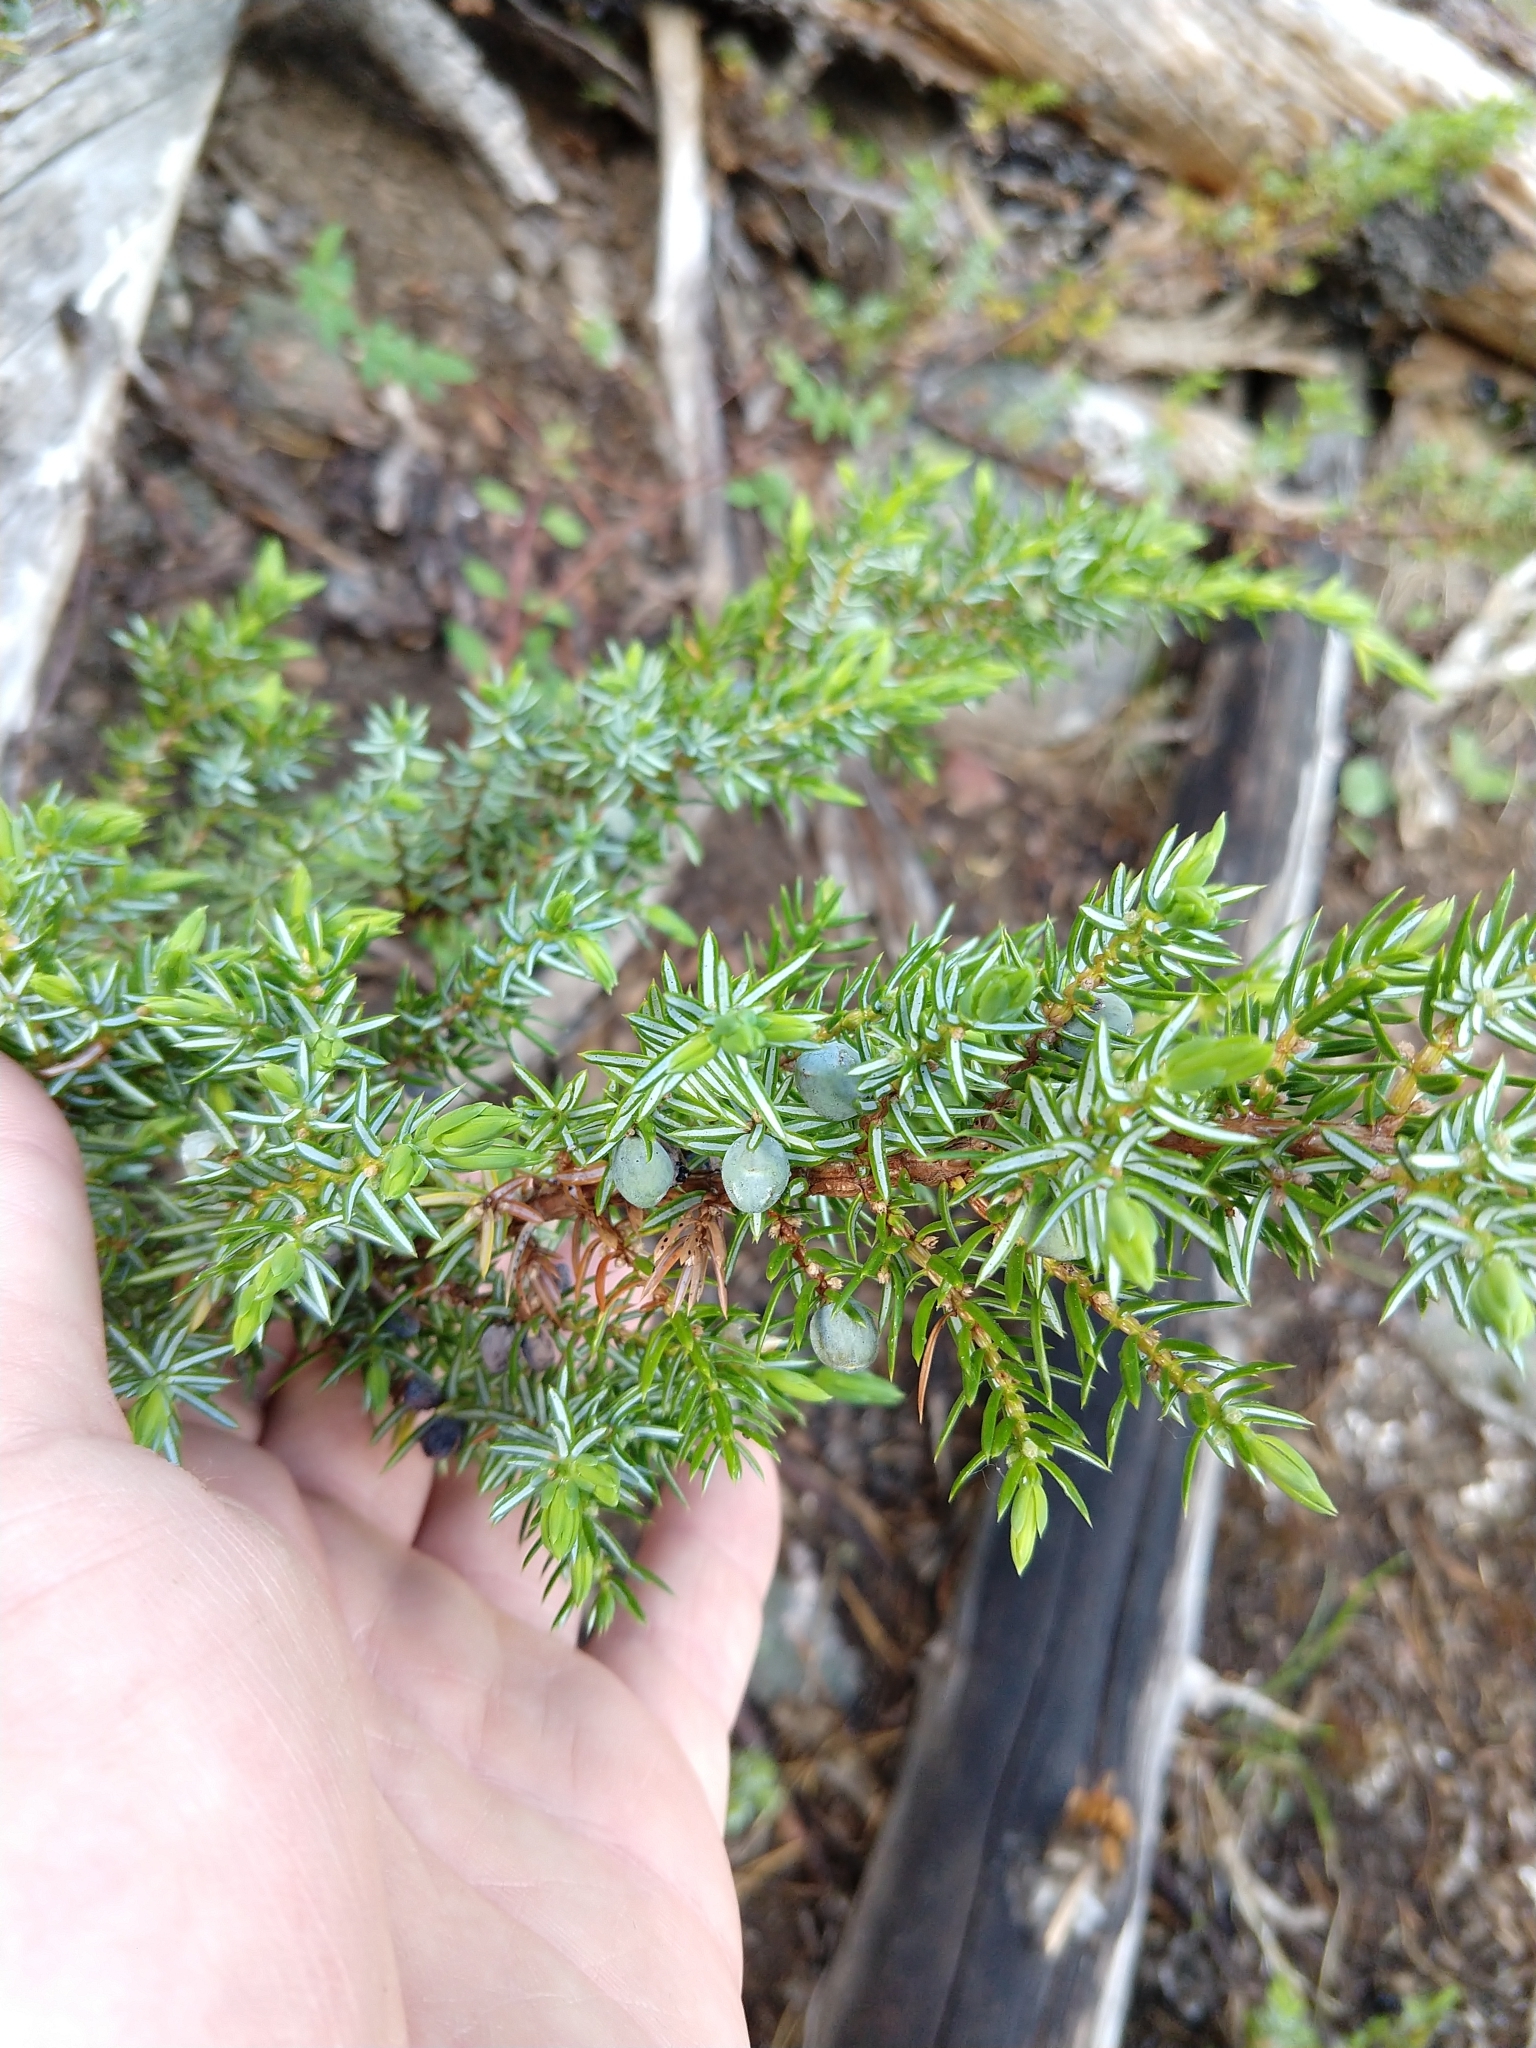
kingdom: Plantae
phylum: Tracheophyta
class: Pinopsida
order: Pinales
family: Cupressaceae
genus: Juniperus
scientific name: Juniperus communis
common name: Common juniper
